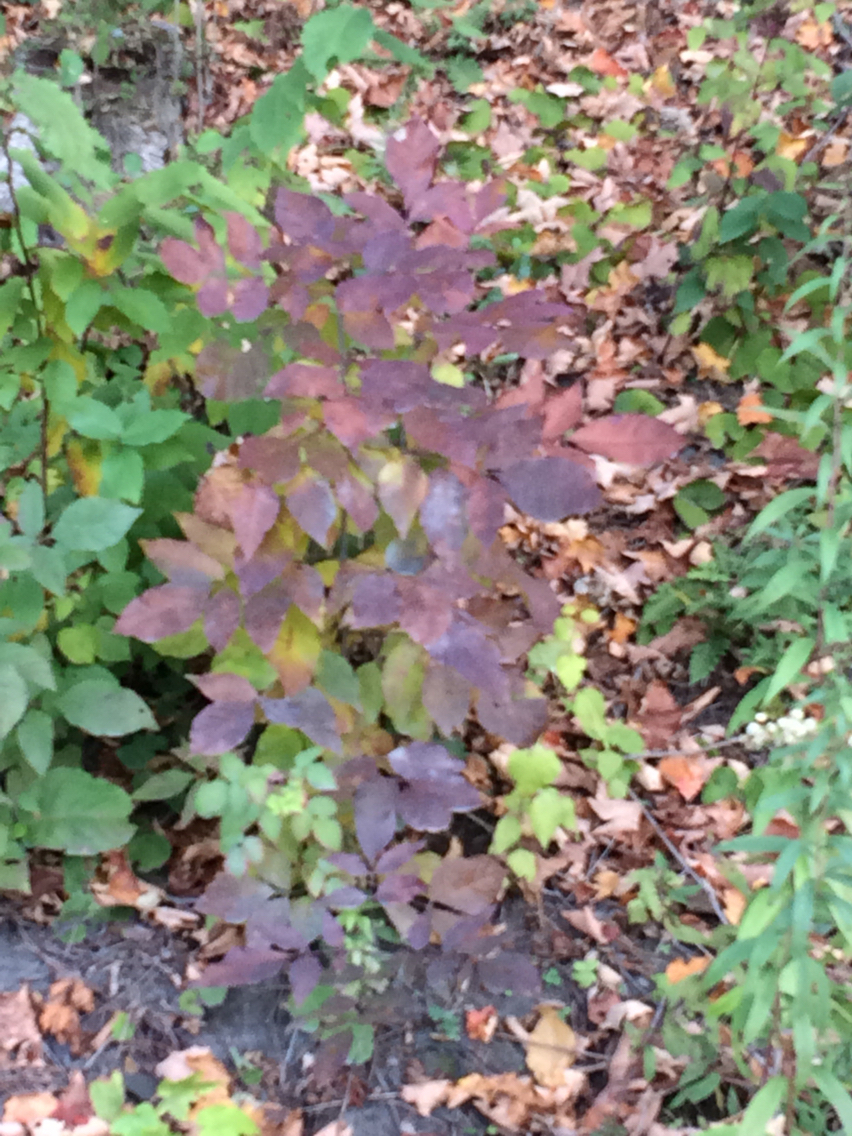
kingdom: Plantae
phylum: Tracheophyta
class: Magnoliopsida
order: Lamiales
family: Oleaceae
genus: Fraxinus
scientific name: Fraxinus americana
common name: White ash
